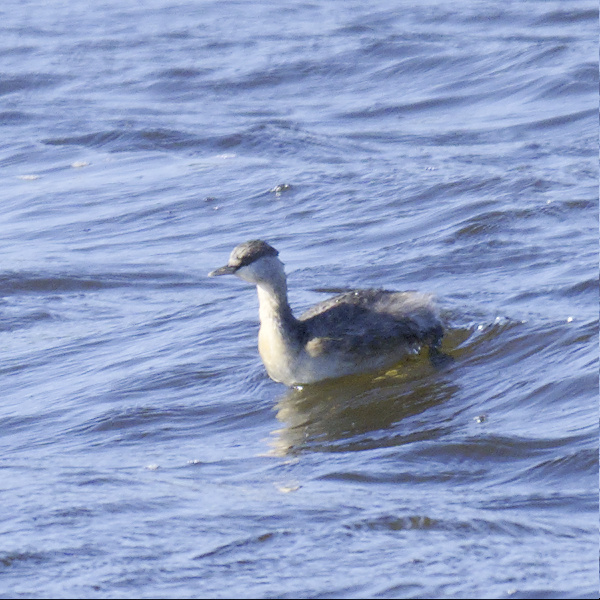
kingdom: Animalia
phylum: Chordata
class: Aves
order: Podicipediformes
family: Podicipedidae
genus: Poliocephalus
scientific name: Poliocephalus poliocephalus
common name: Hoary-headed grebe
